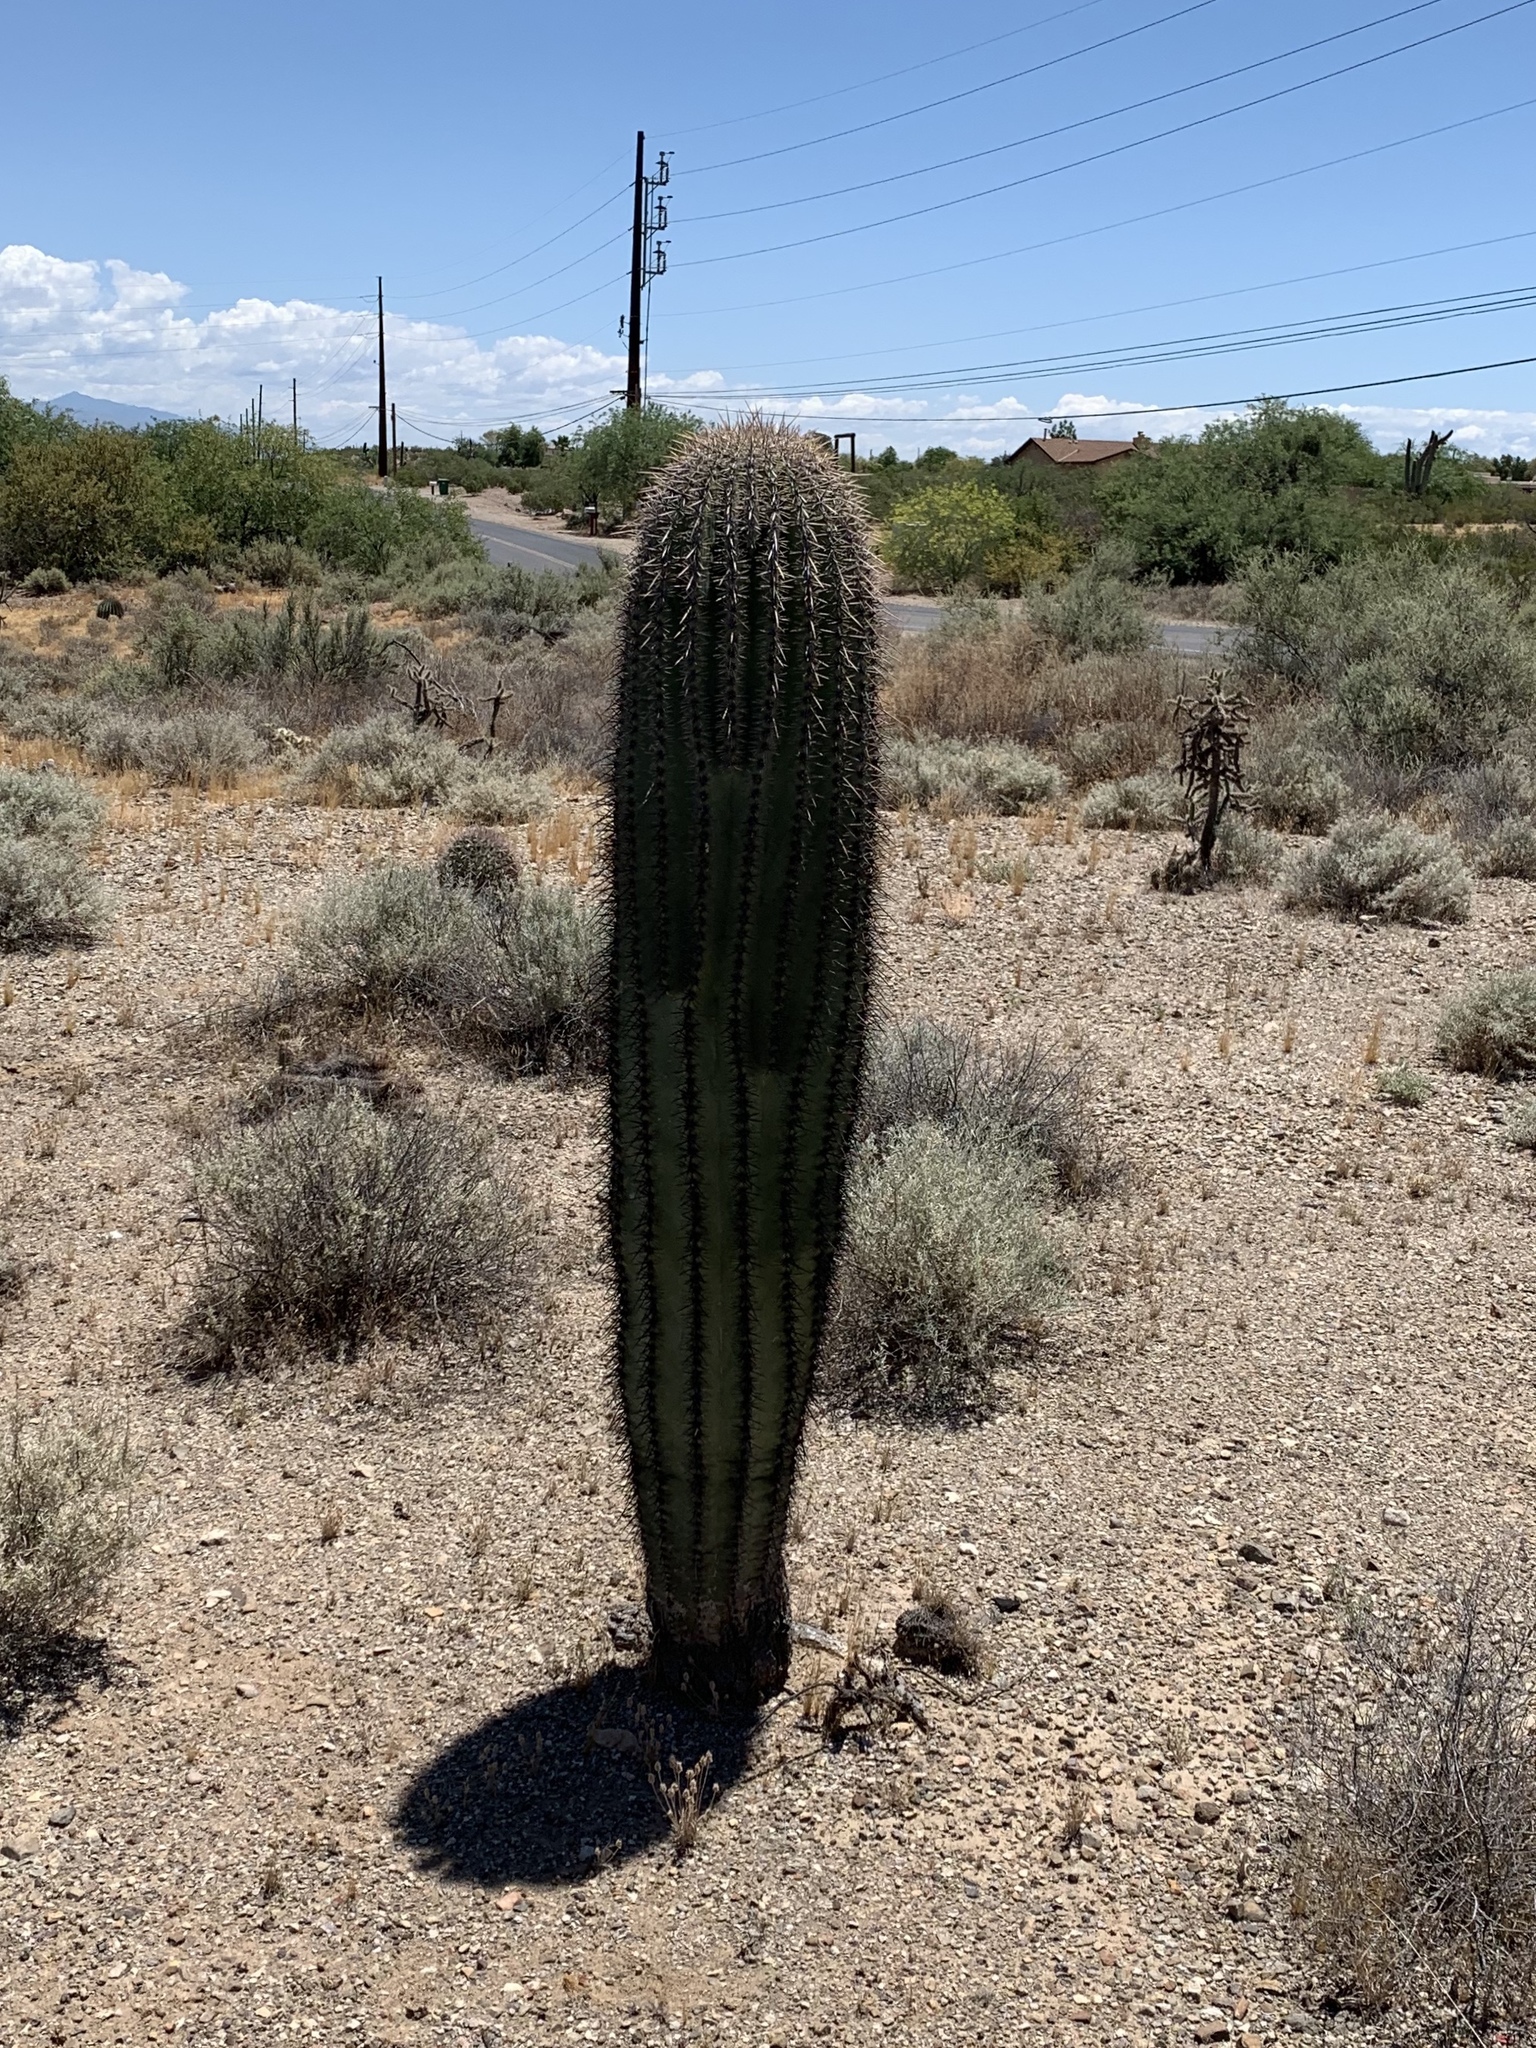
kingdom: Plantae
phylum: Tracheophyta
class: Magnoliopsida
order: Caryophyllales
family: Cactaceae
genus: Carnegiea
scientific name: Carnegiea gigantea
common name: Saguaro
